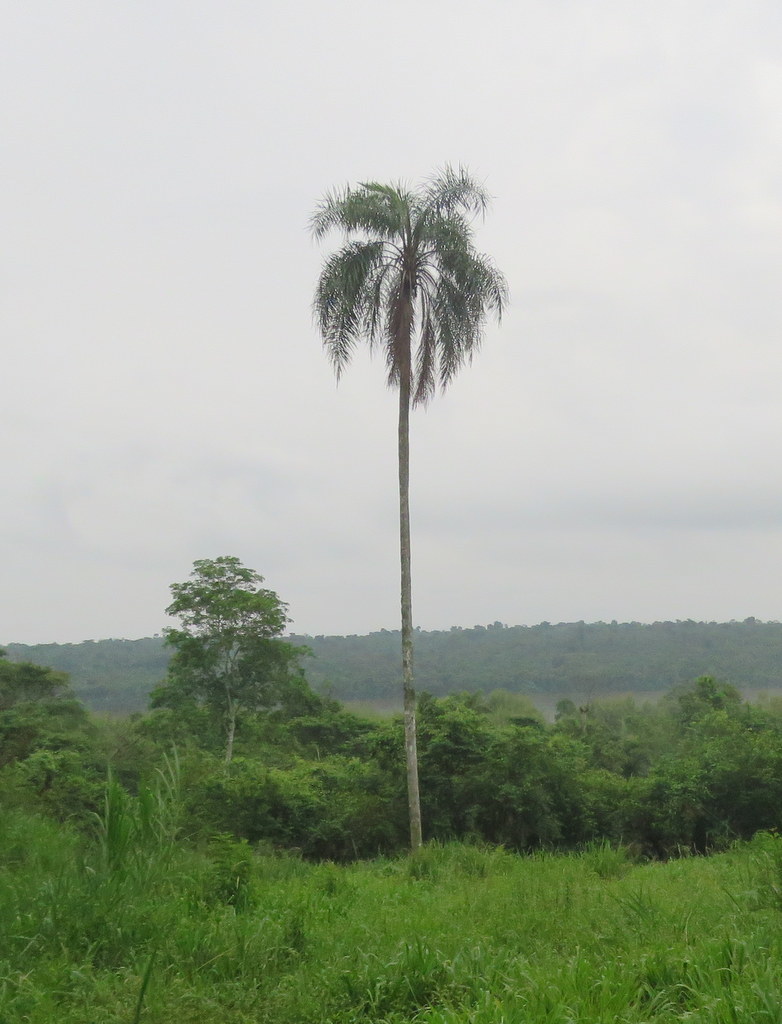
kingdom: Plantae
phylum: Tracheophyta
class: Liliopsida
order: Arecales
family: Arecaceae
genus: Syagrus
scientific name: Syagrus romanzoffiana
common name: Queen palm
